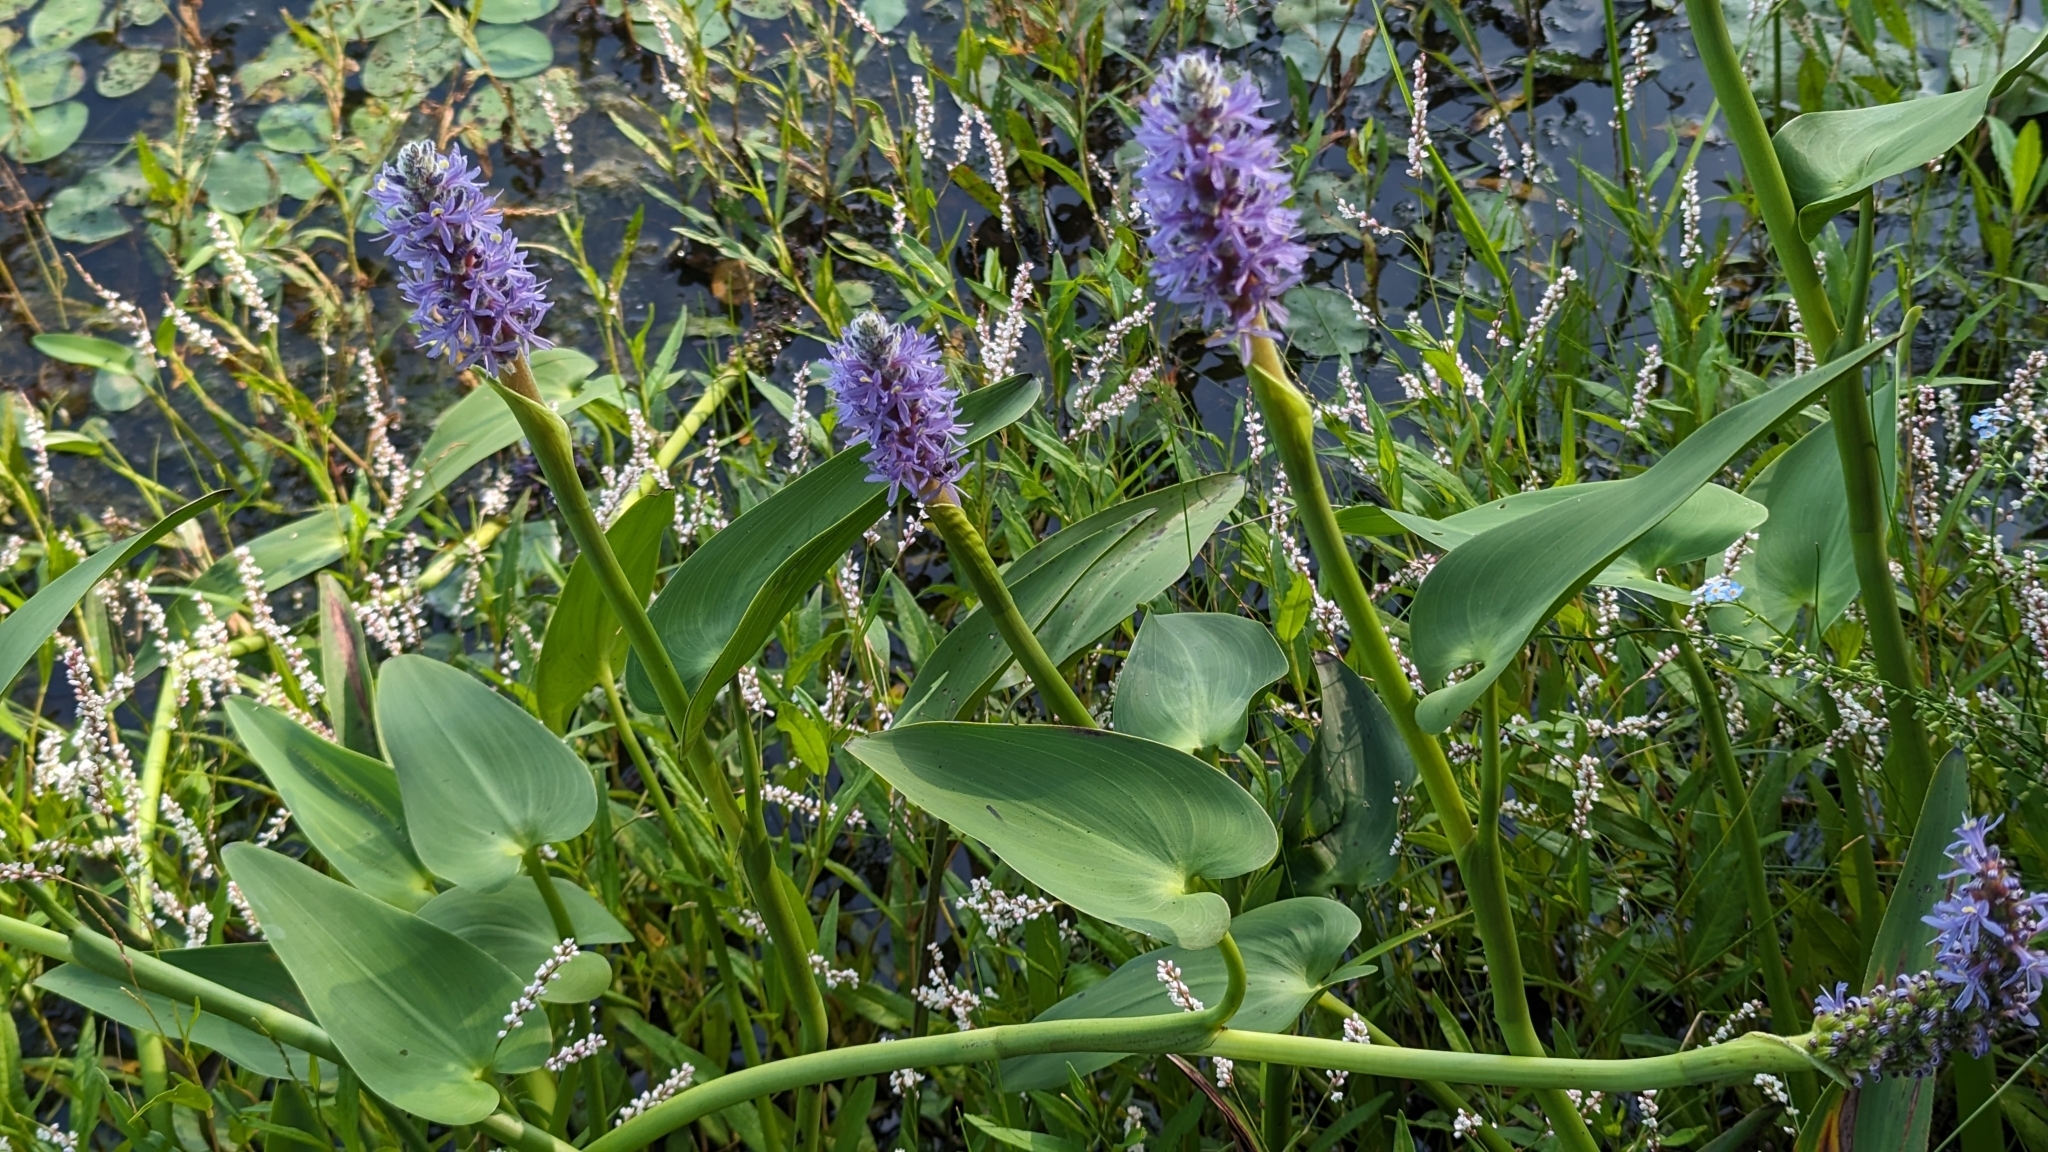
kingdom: Plantae
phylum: Tracheophyta
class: Liliopsida
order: Commelinales
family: Pontederiaceae
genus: Pontederia
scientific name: Pontederia cordata
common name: Pickerelweed
